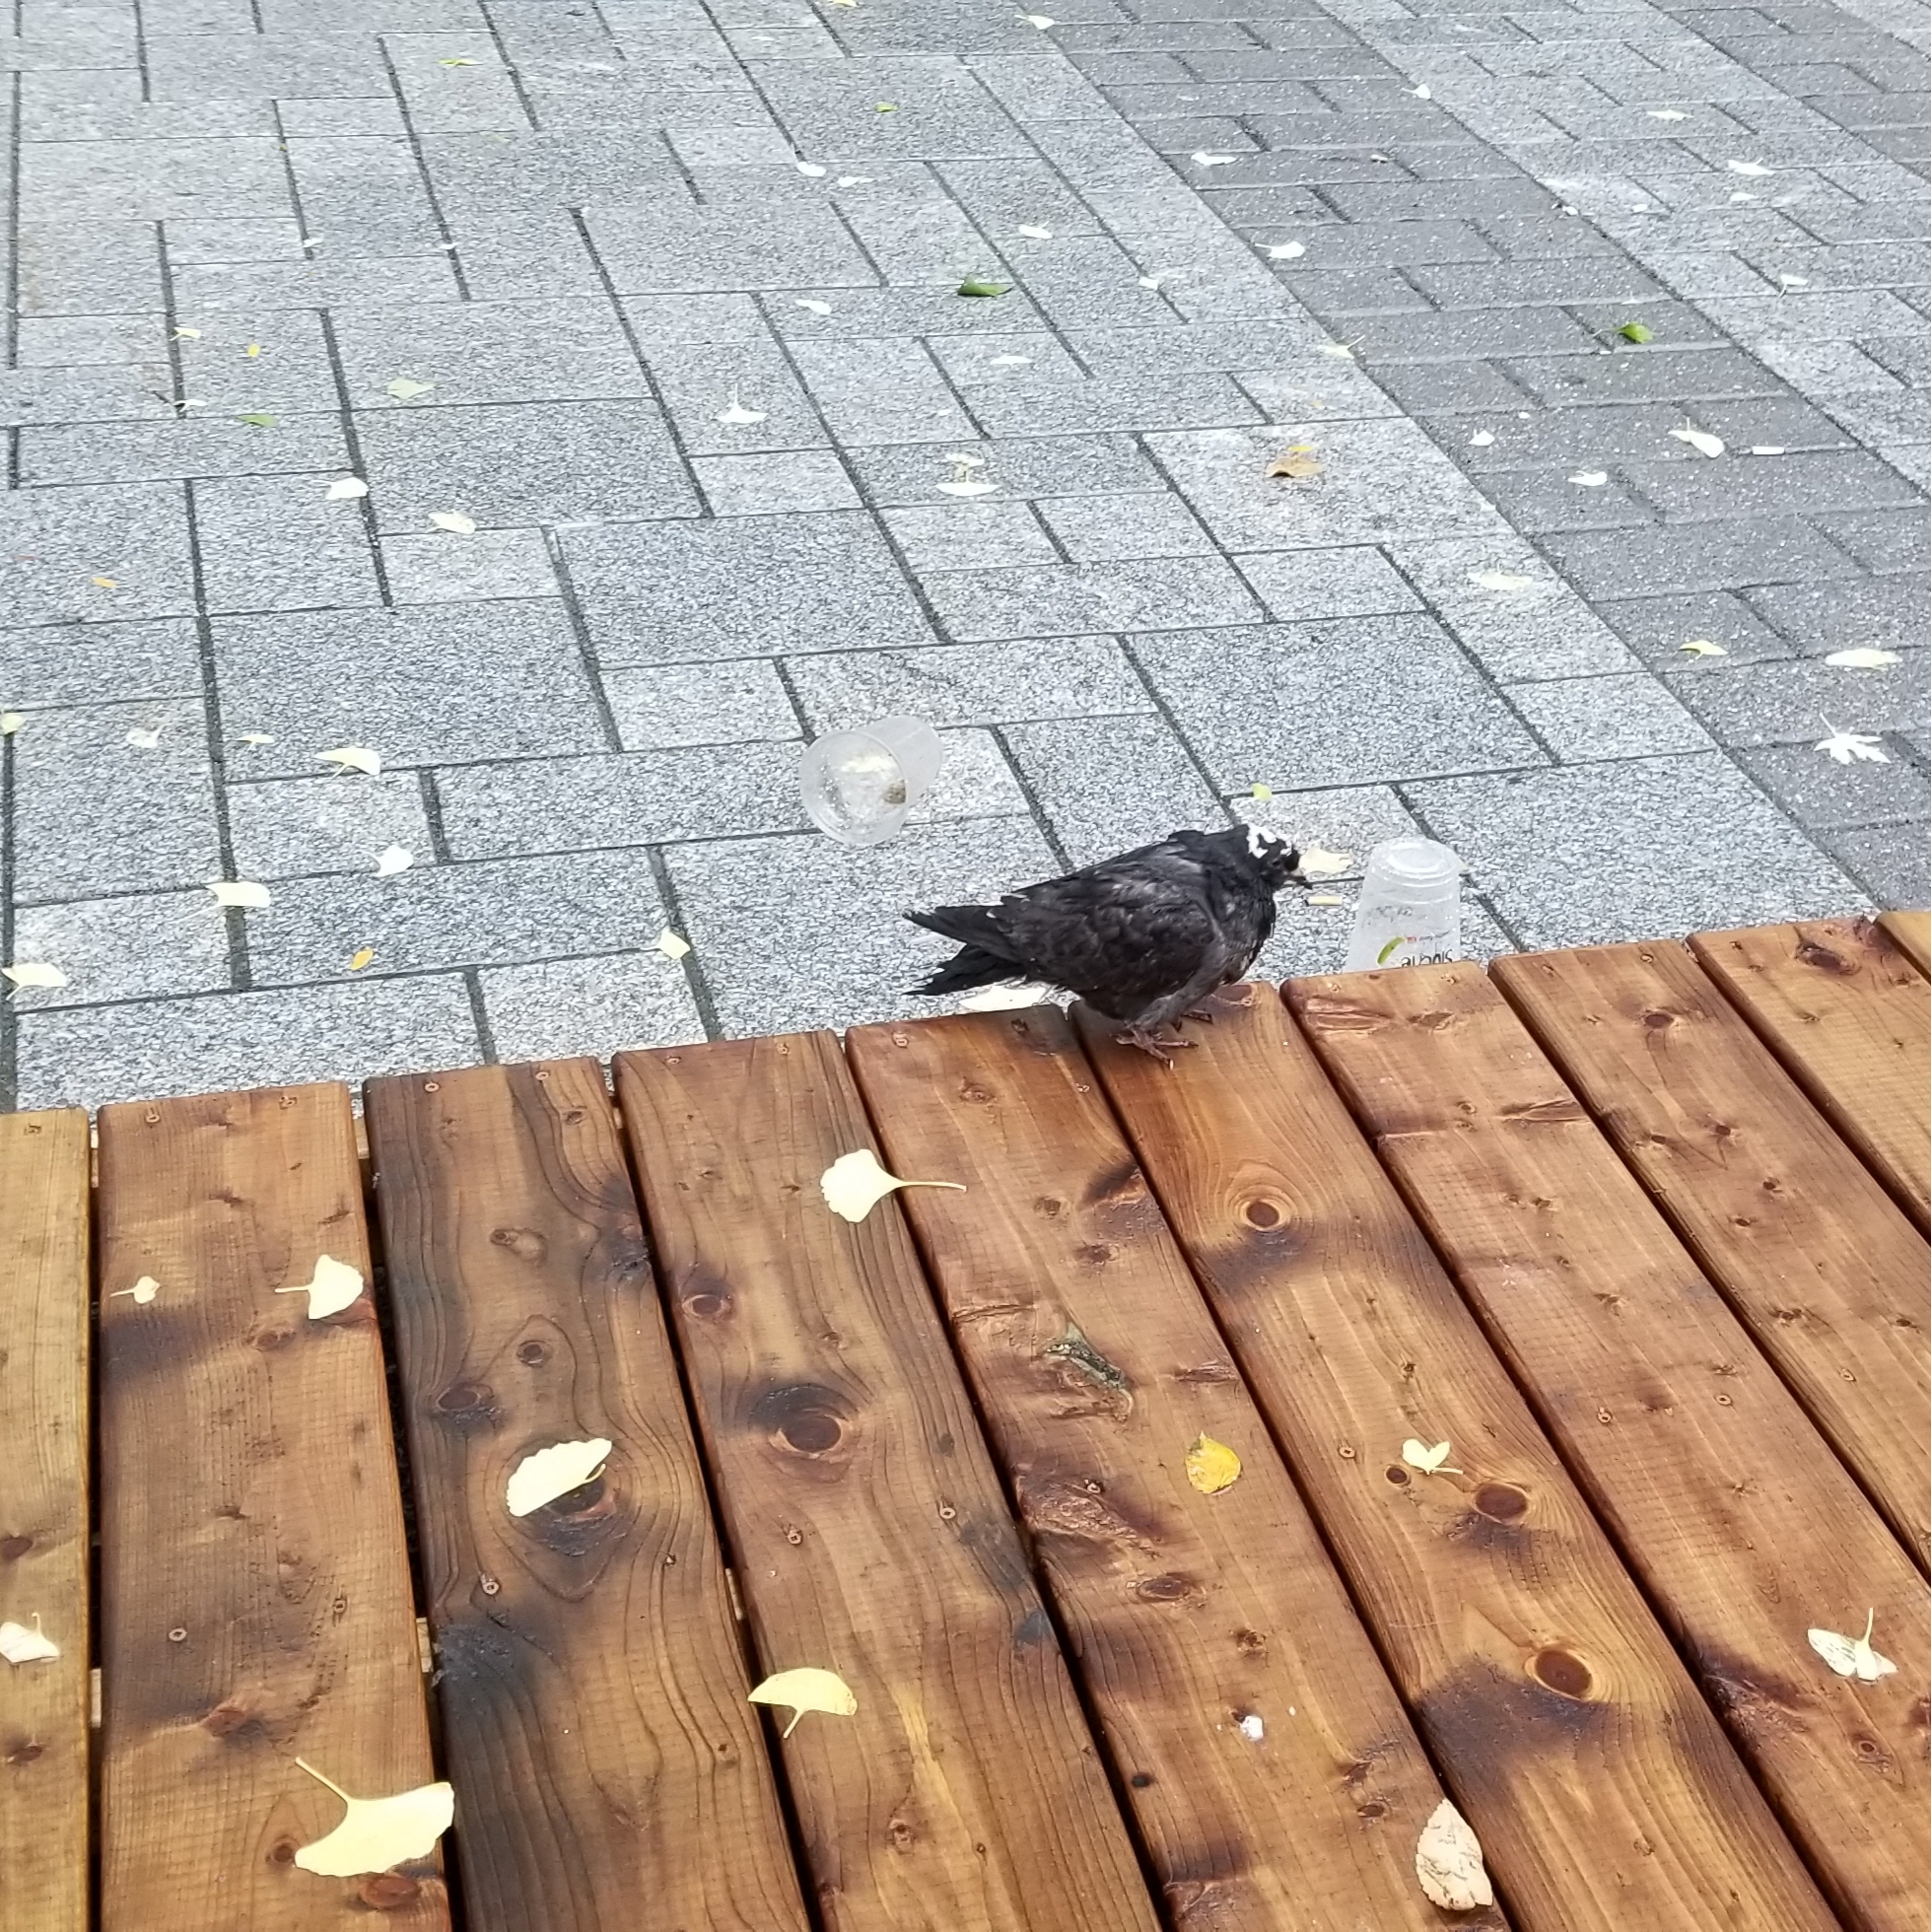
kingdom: Animalia
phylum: Chordata
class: Aves
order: Columbiformes
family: Columbidae
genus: Columba
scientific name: Columba livia
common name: Rock pigeon
